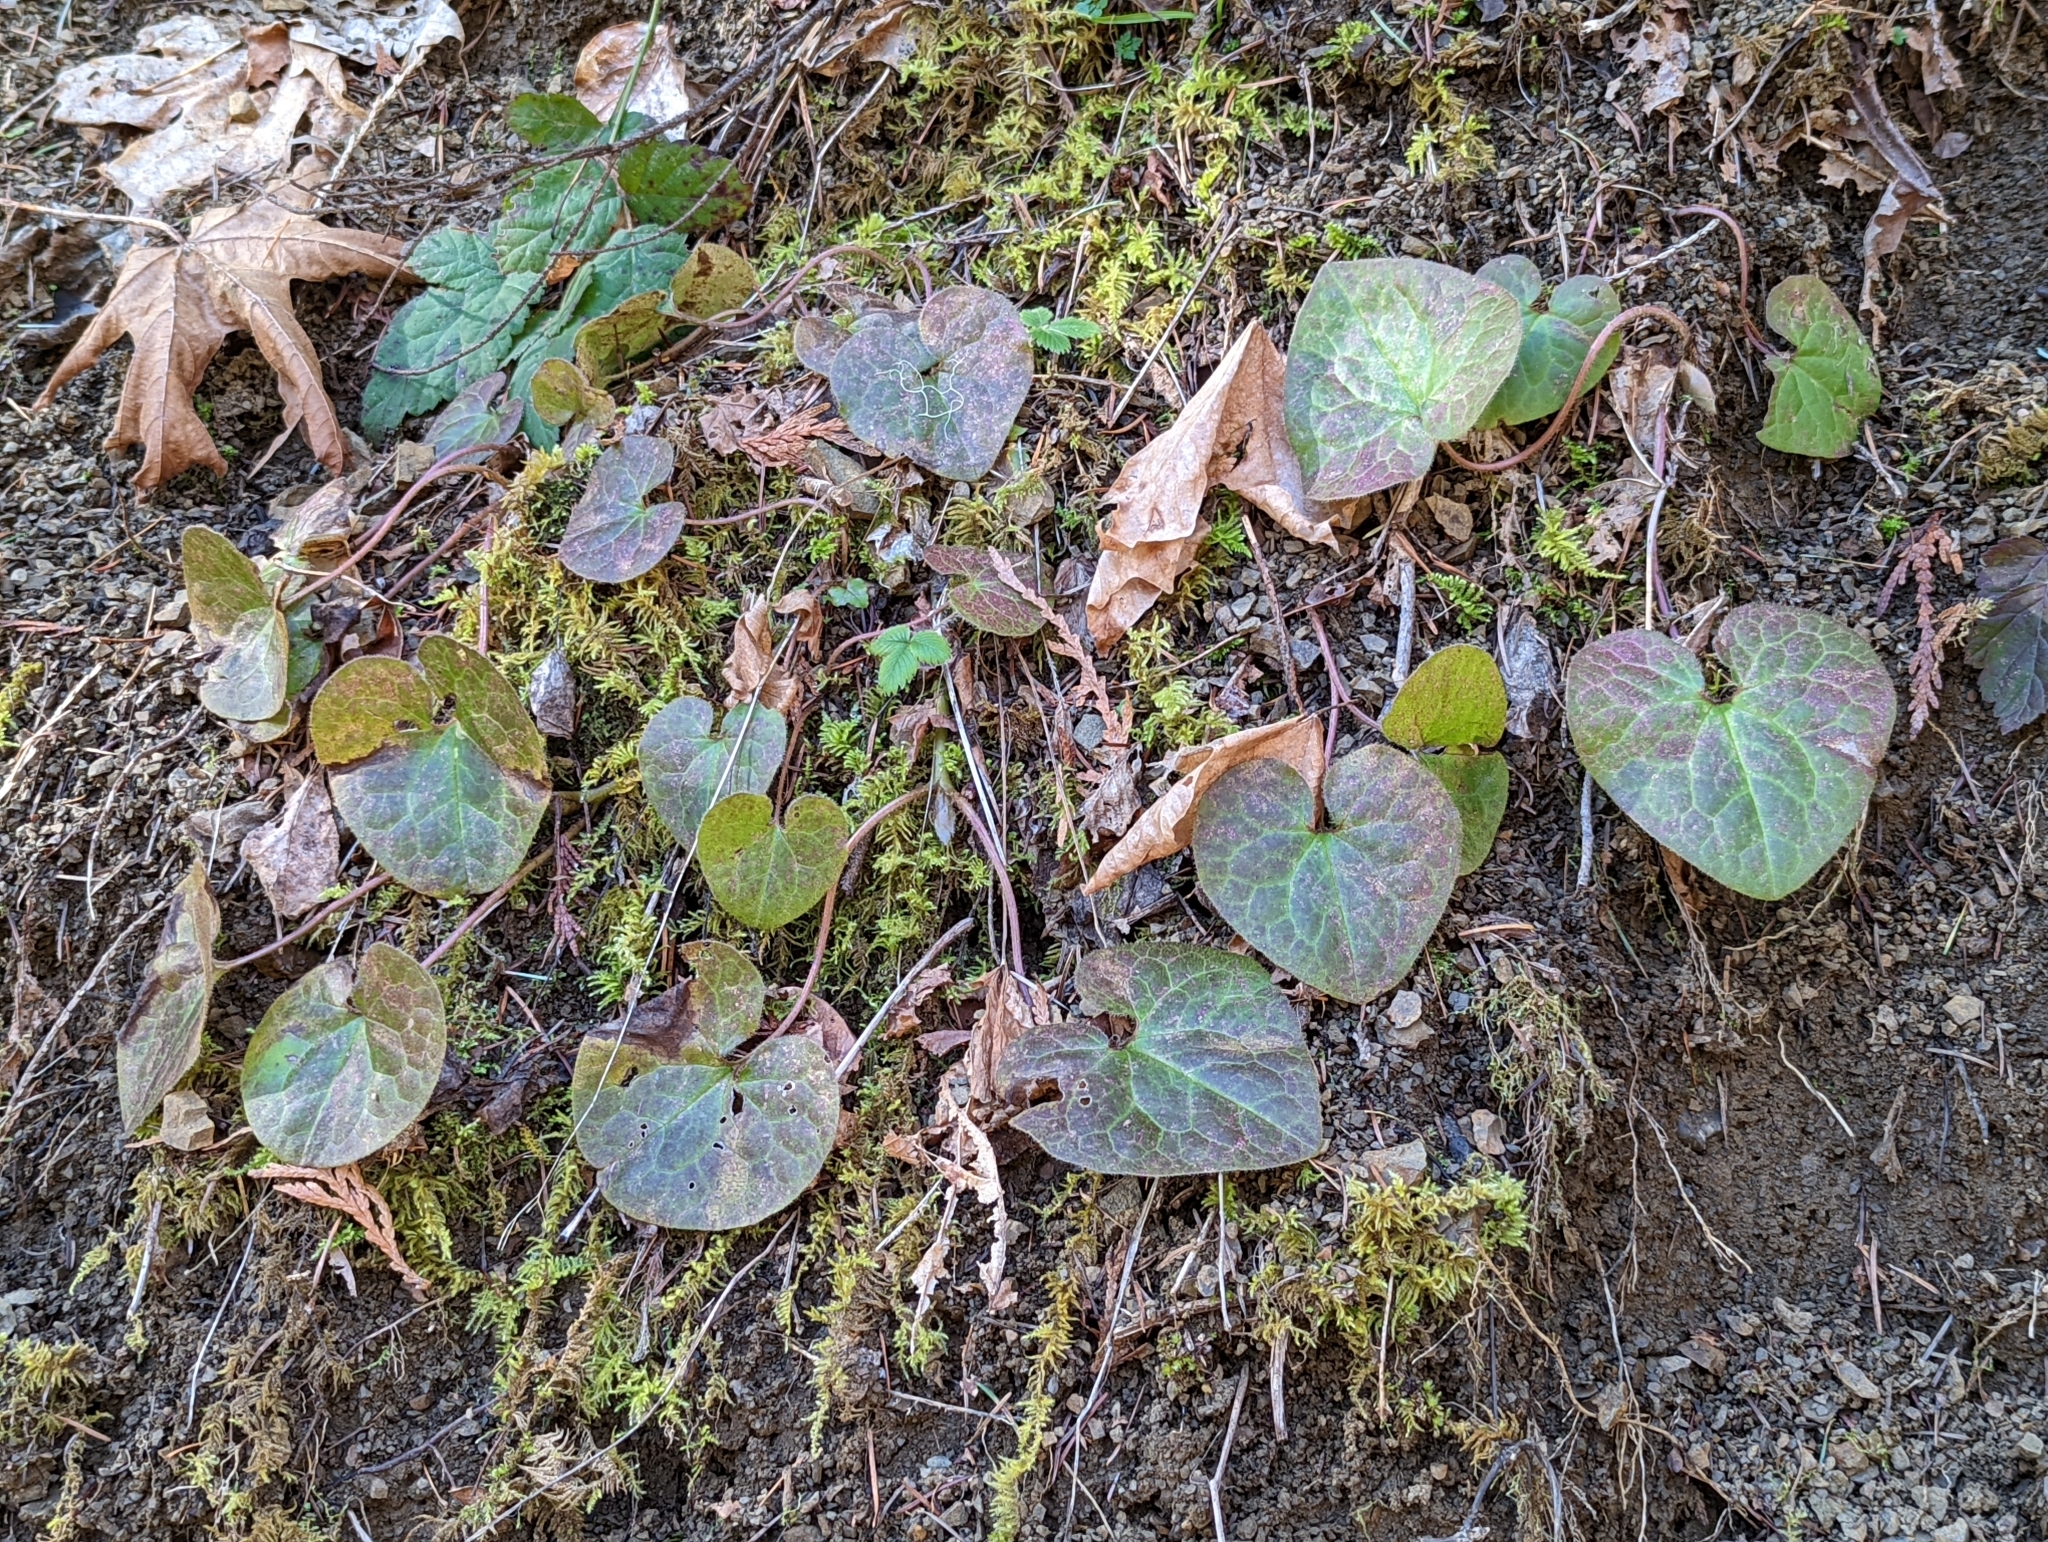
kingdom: Plantae
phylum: Tracheophyta
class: Magnoliopsida
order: Piperales
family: Aristolochiaceae
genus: Asarum
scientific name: Asarum caudatum
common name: Wild ginger
